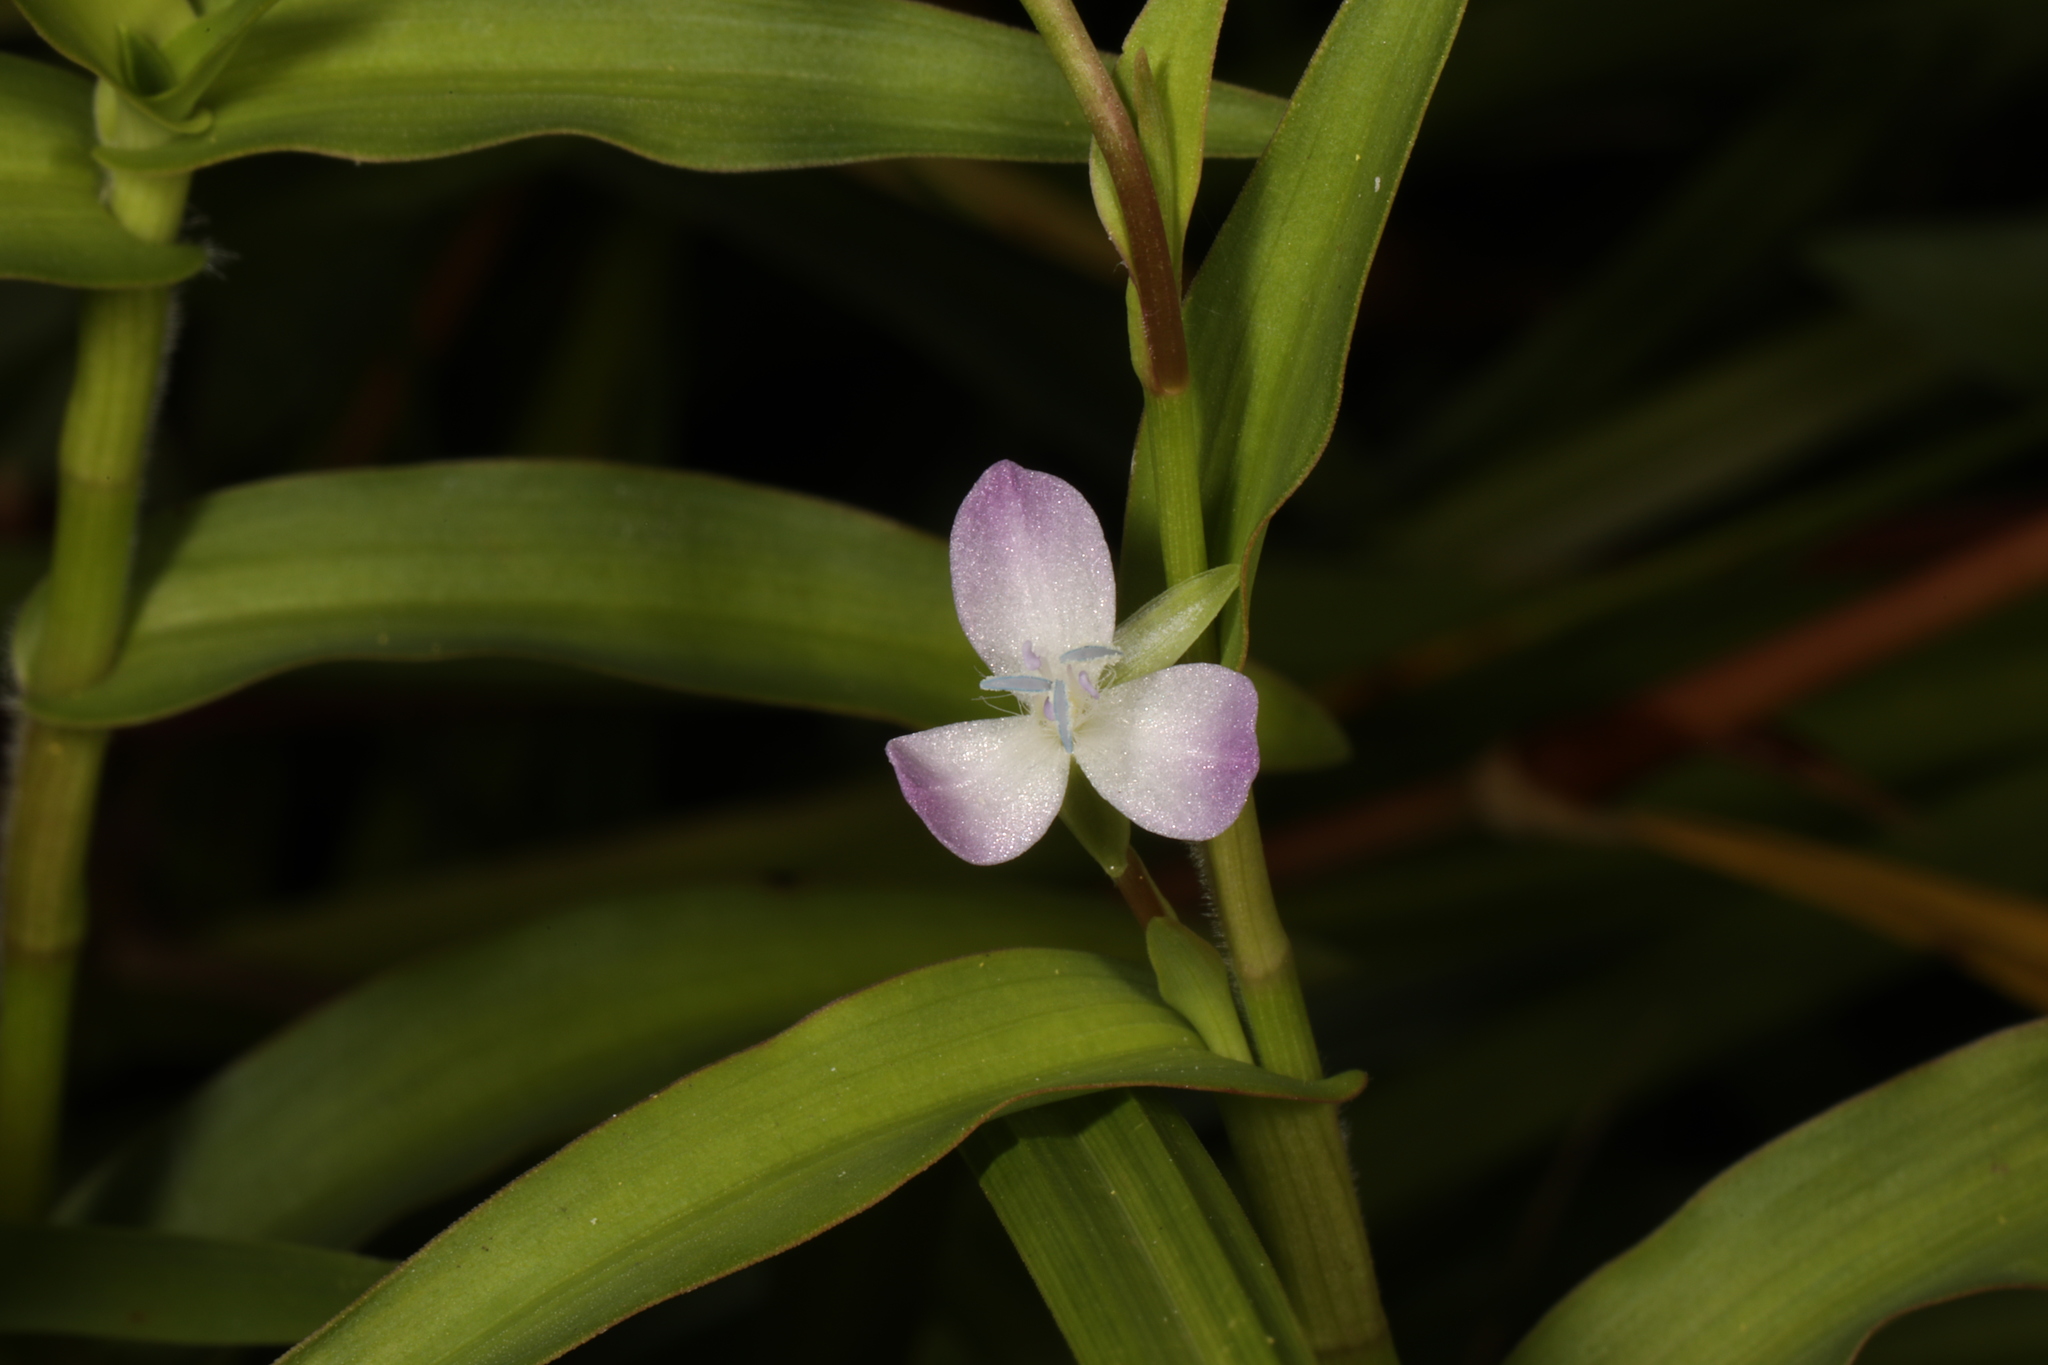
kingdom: Plantae
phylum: Tracheophyta
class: Liliopsida
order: Commelinales
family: Commelinaceae
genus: Murdannia
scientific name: Murdannia keisak
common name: Wartremoving herb
